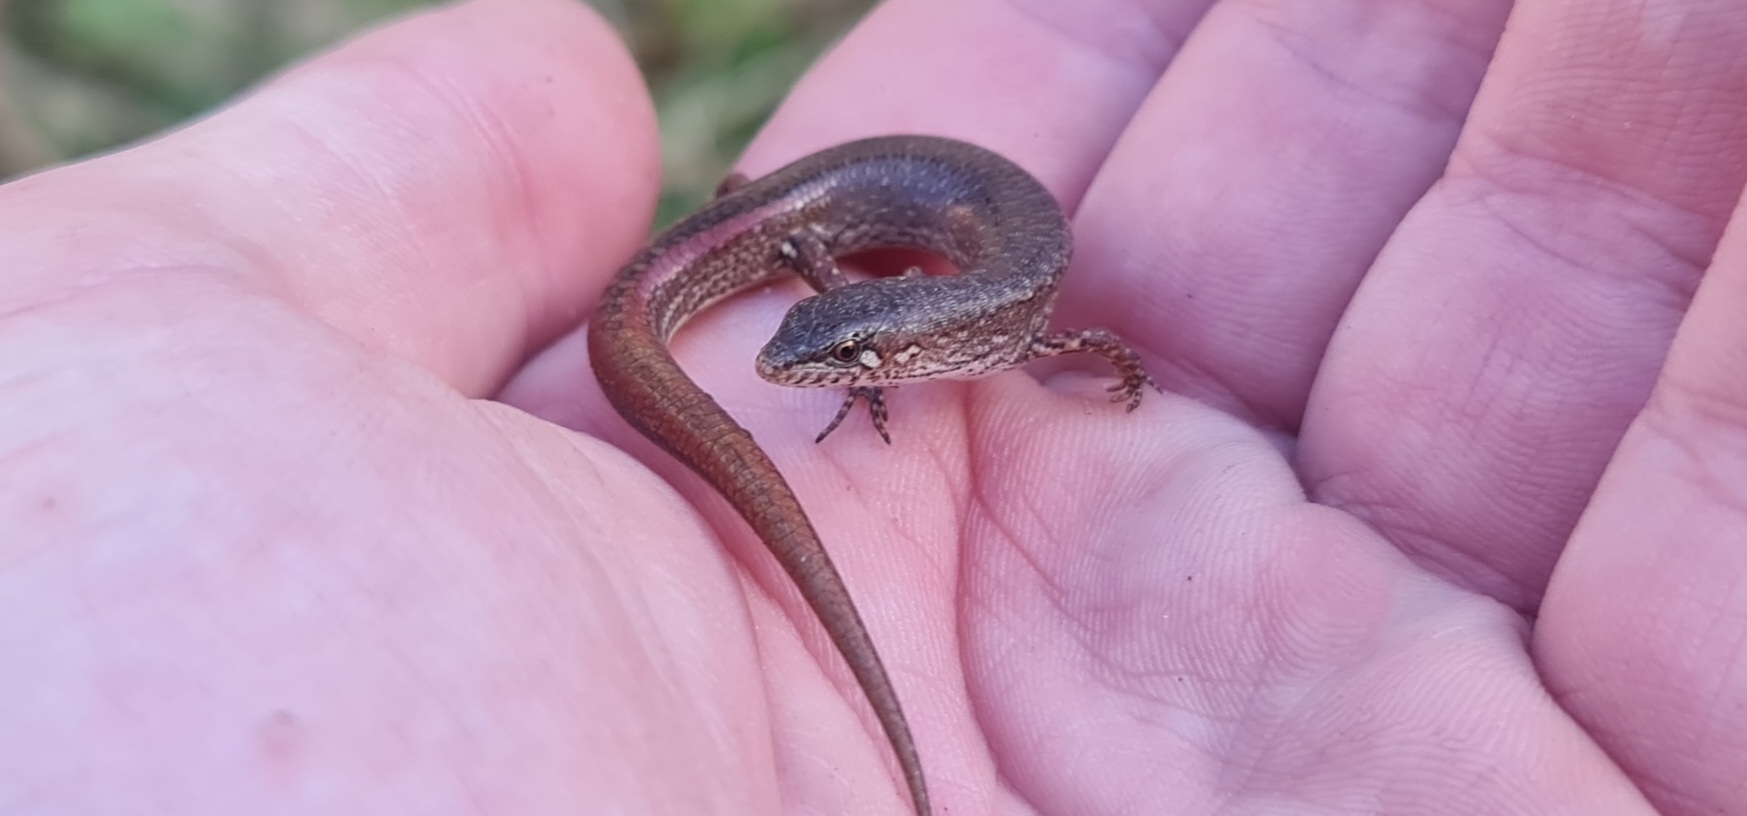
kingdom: Animalia
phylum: Chordata
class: Squamata
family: Scincidae
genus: Saproscincus
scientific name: Saproscincus mustelinus
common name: Southern weasel skink
